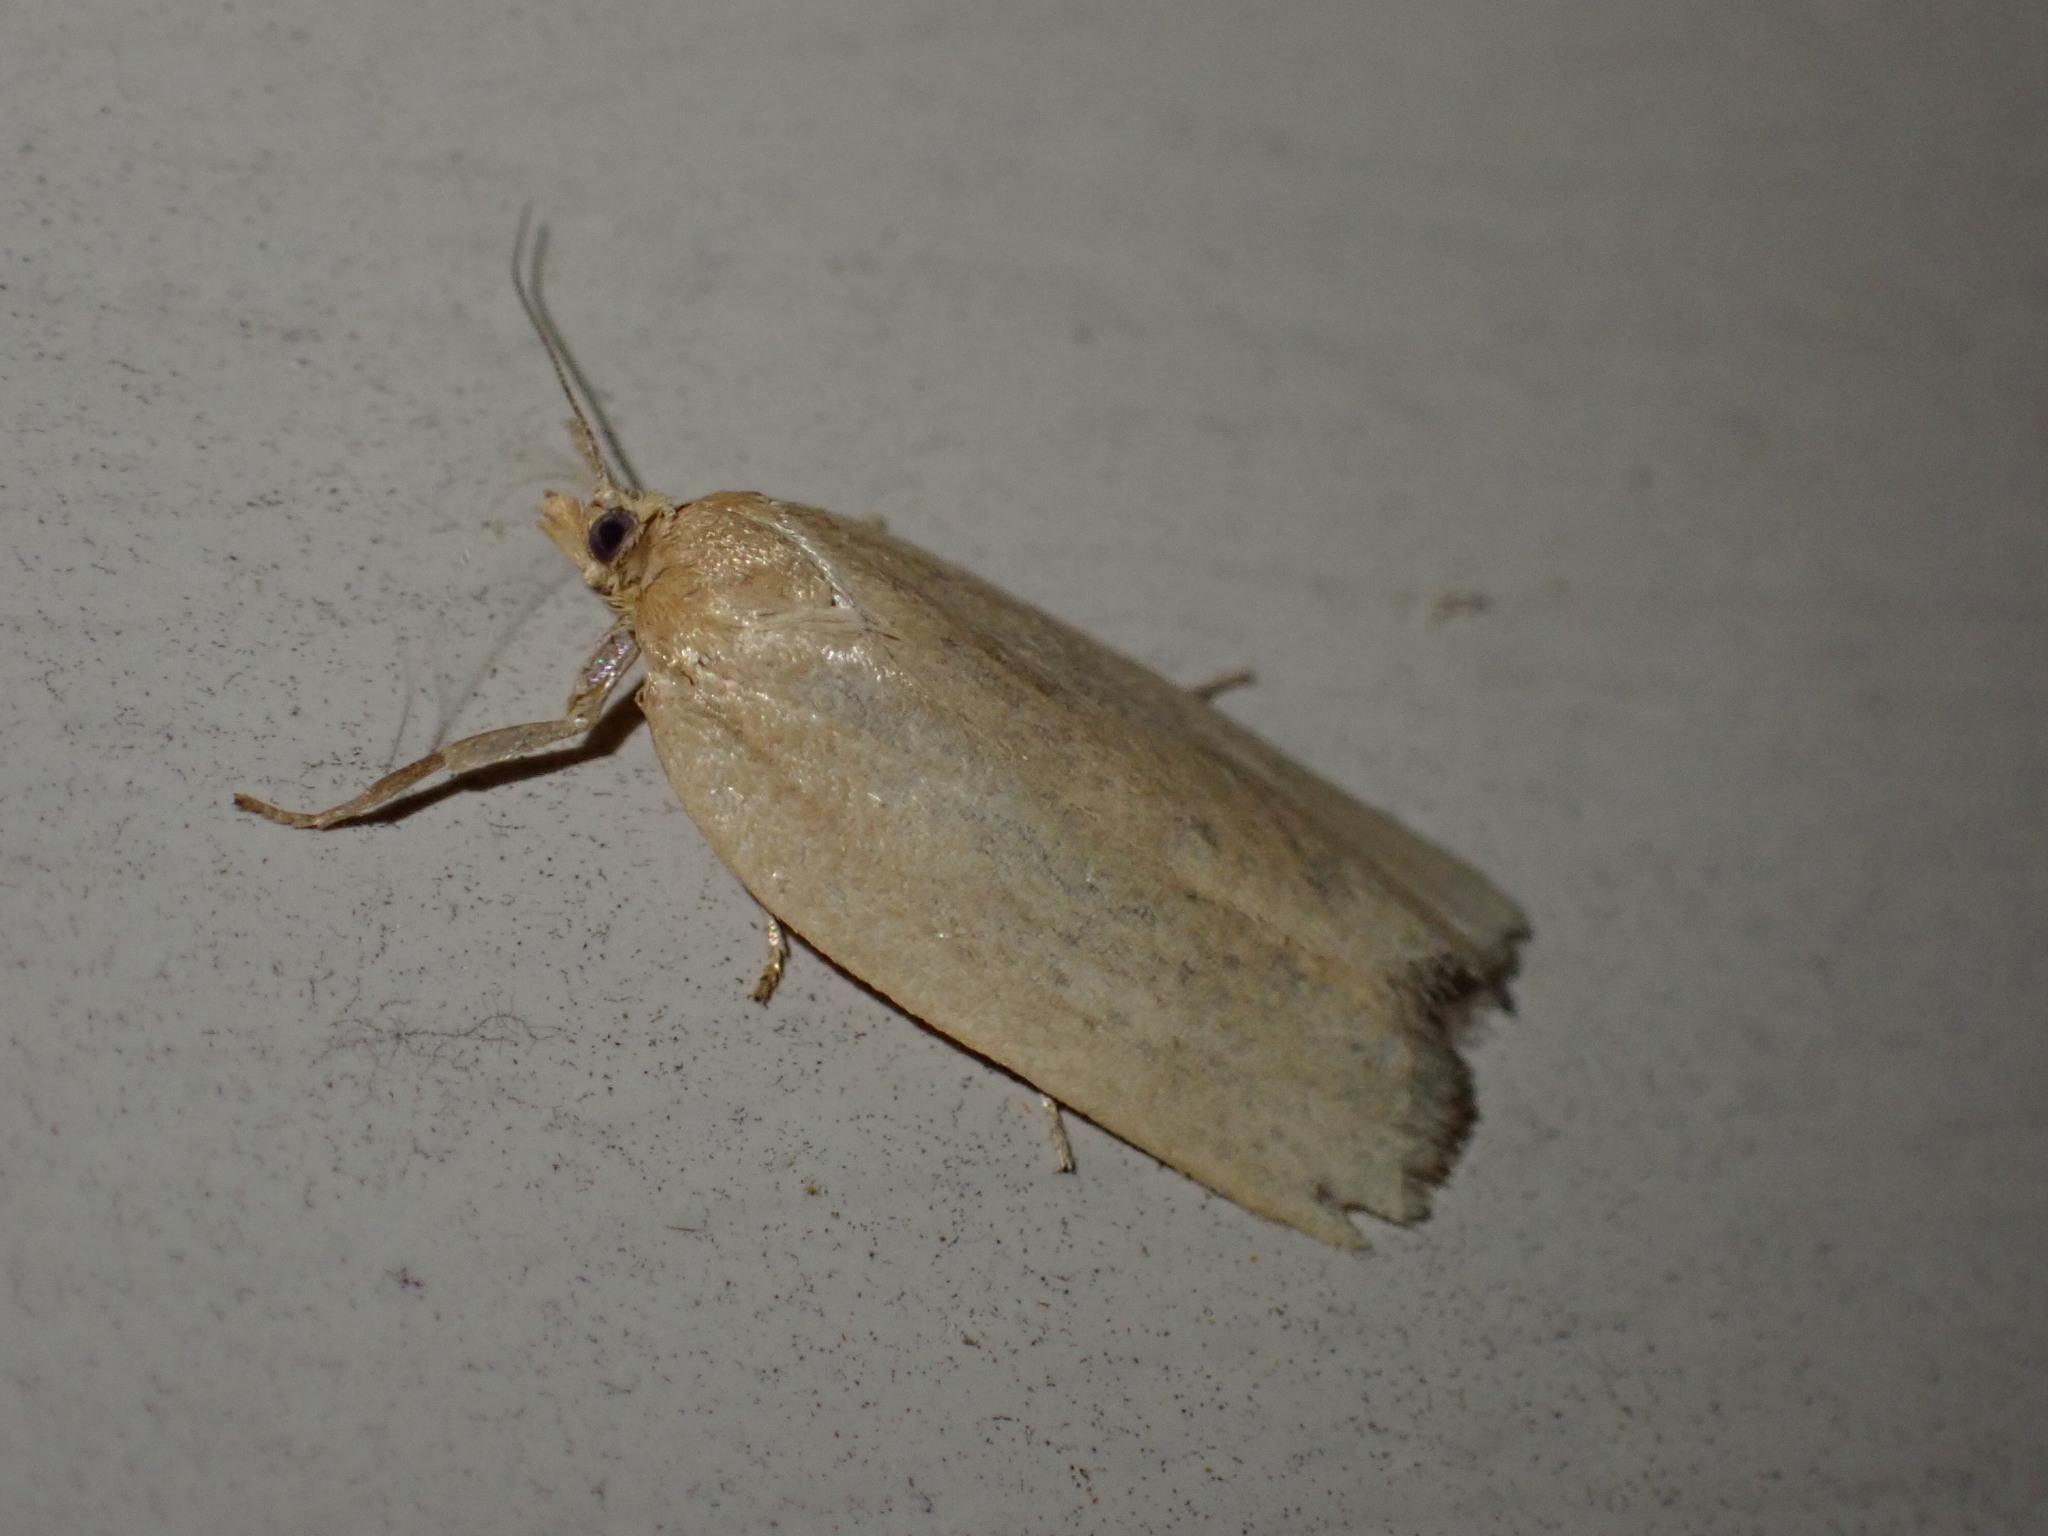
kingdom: Animalia
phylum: Arthropoda
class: Insecta
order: Lepidoptera
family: Tortricidae
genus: Clepsis
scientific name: Clepsis clemensiana
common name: Clemens' clepsis moth
